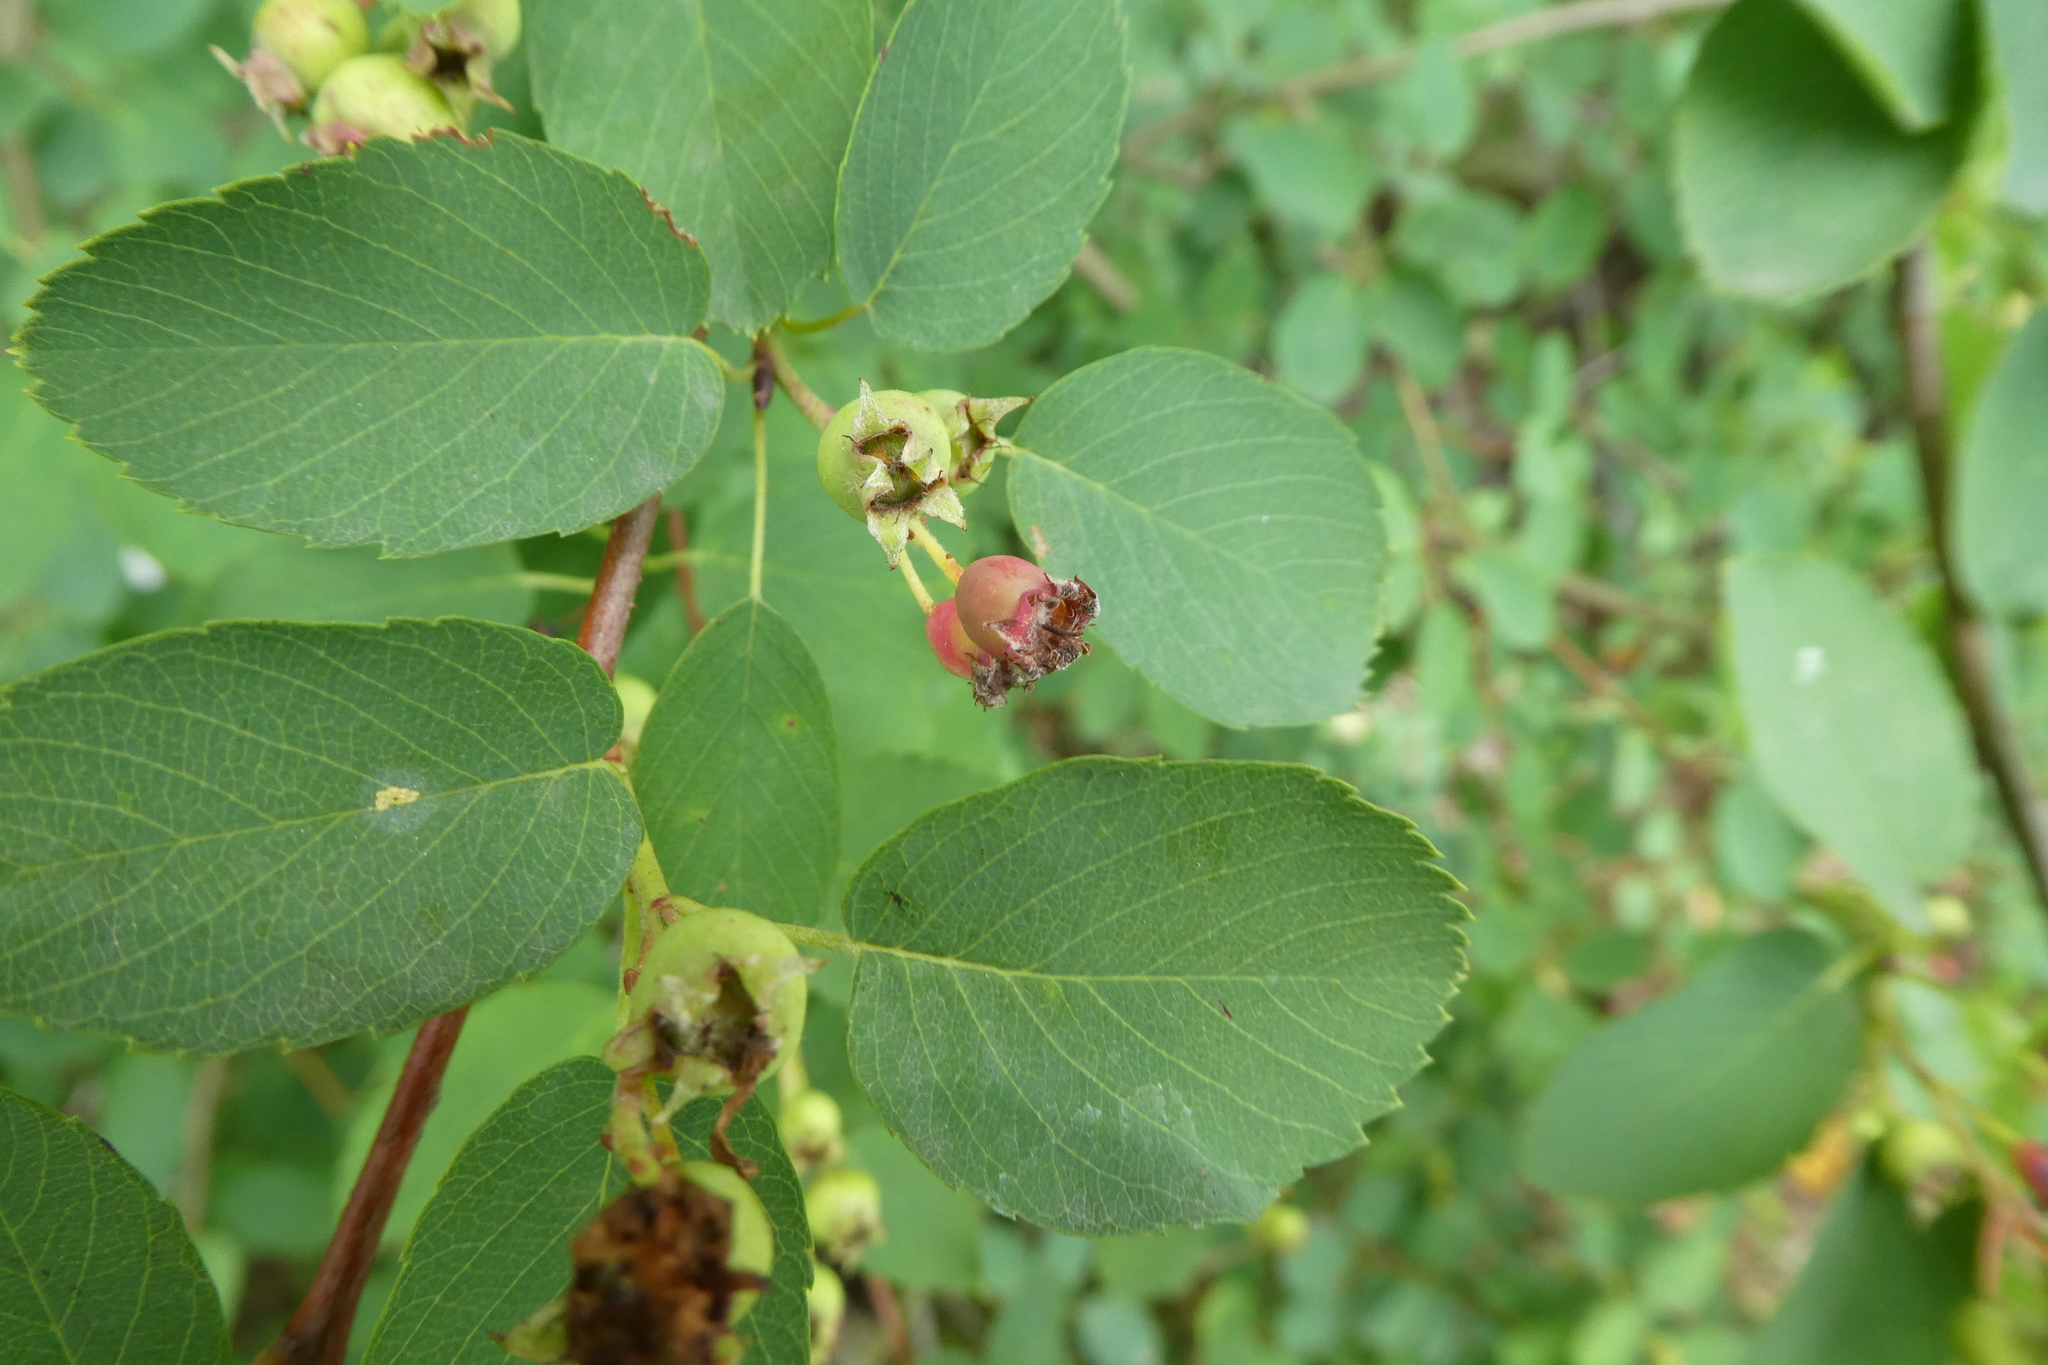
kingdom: Plantae
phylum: Tracheophyta
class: Magnoliopsida
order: Rosales
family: Rosaceae
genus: Amelanchier
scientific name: Amelanchier alnifolia
